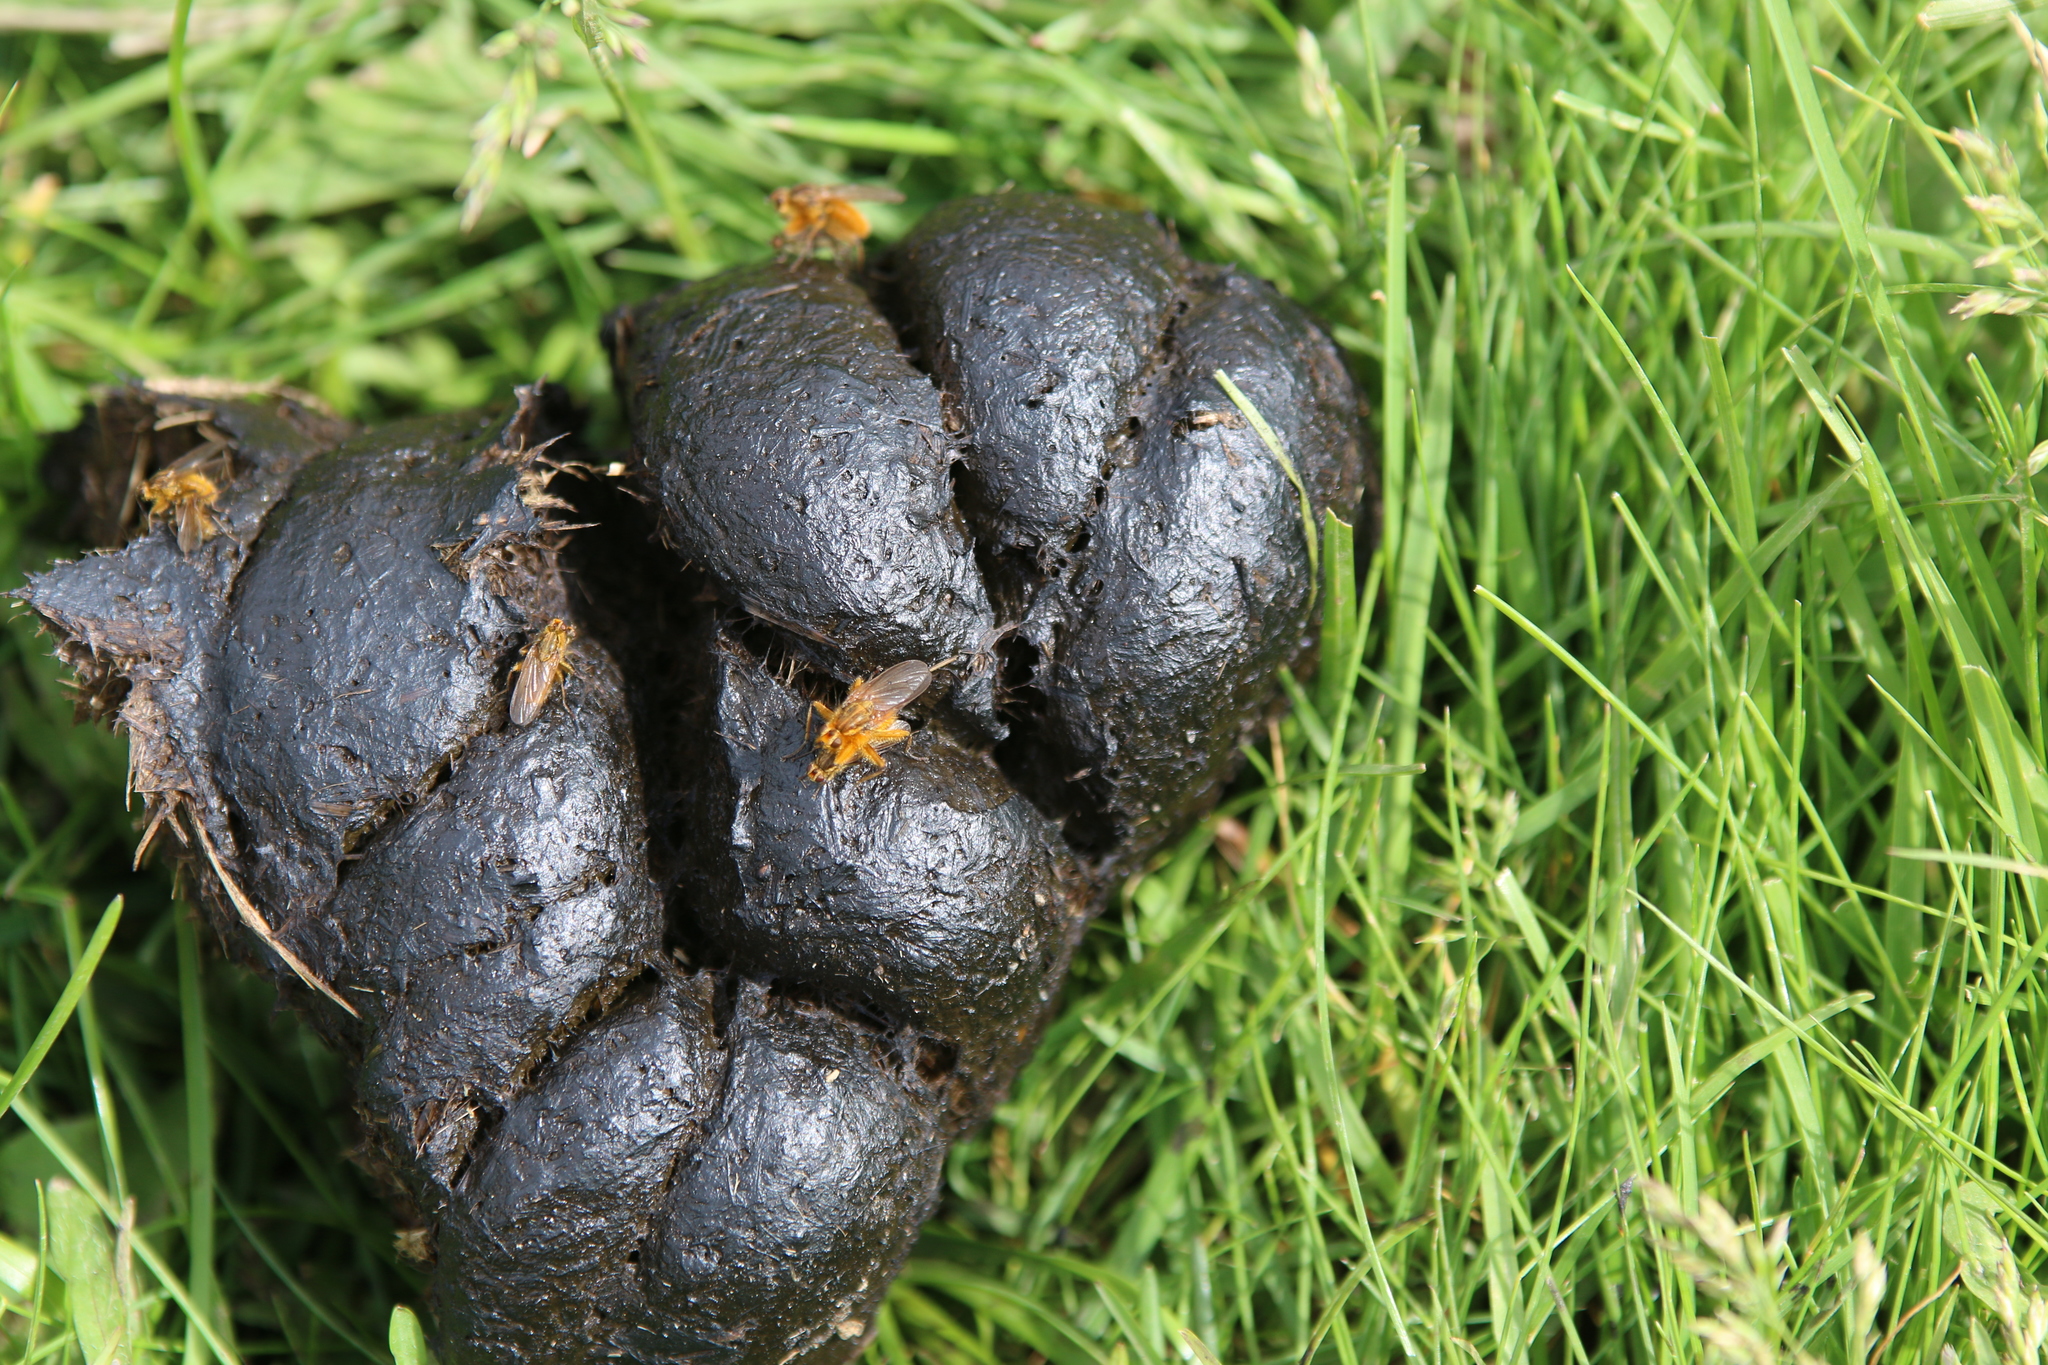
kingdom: Animalia
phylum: Arthropoda
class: Insecta
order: Diptera
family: Scathophagidae
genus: Scathophaga
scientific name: Scathophaga stercoraria
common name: Yellow dung fly
